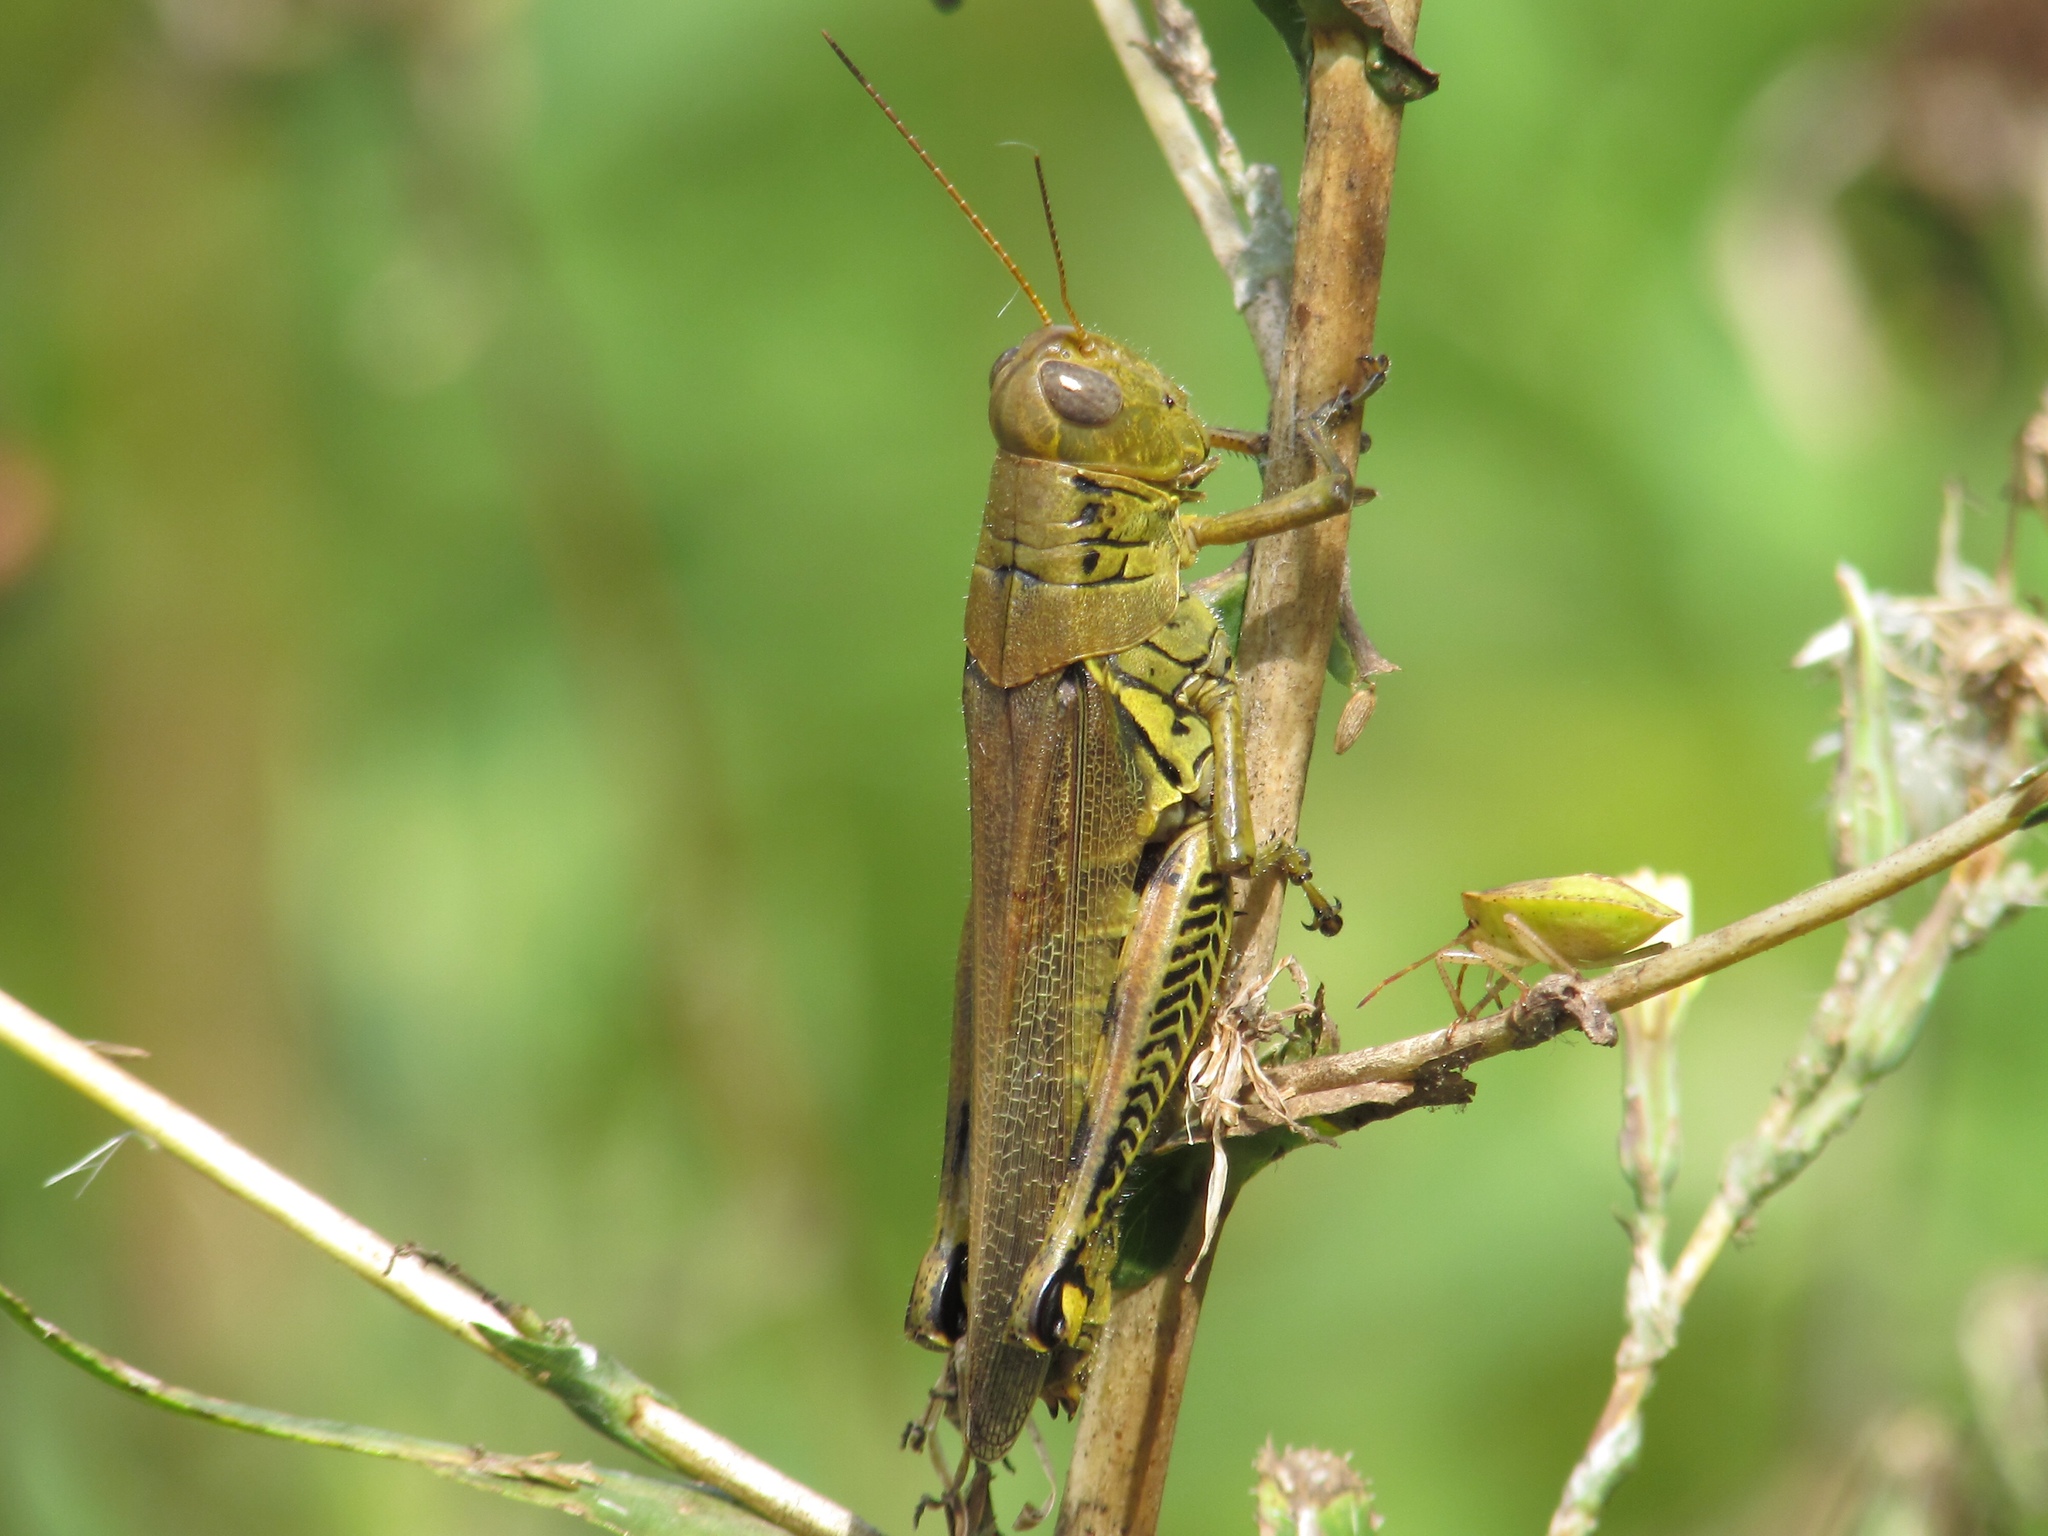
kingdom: Animalia
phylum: Arthropoda
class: Insecta
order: Orthoptera
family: Acrididae
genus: Melanoplus
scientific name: Melanoplus differentialis
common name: Differential grasshopper
